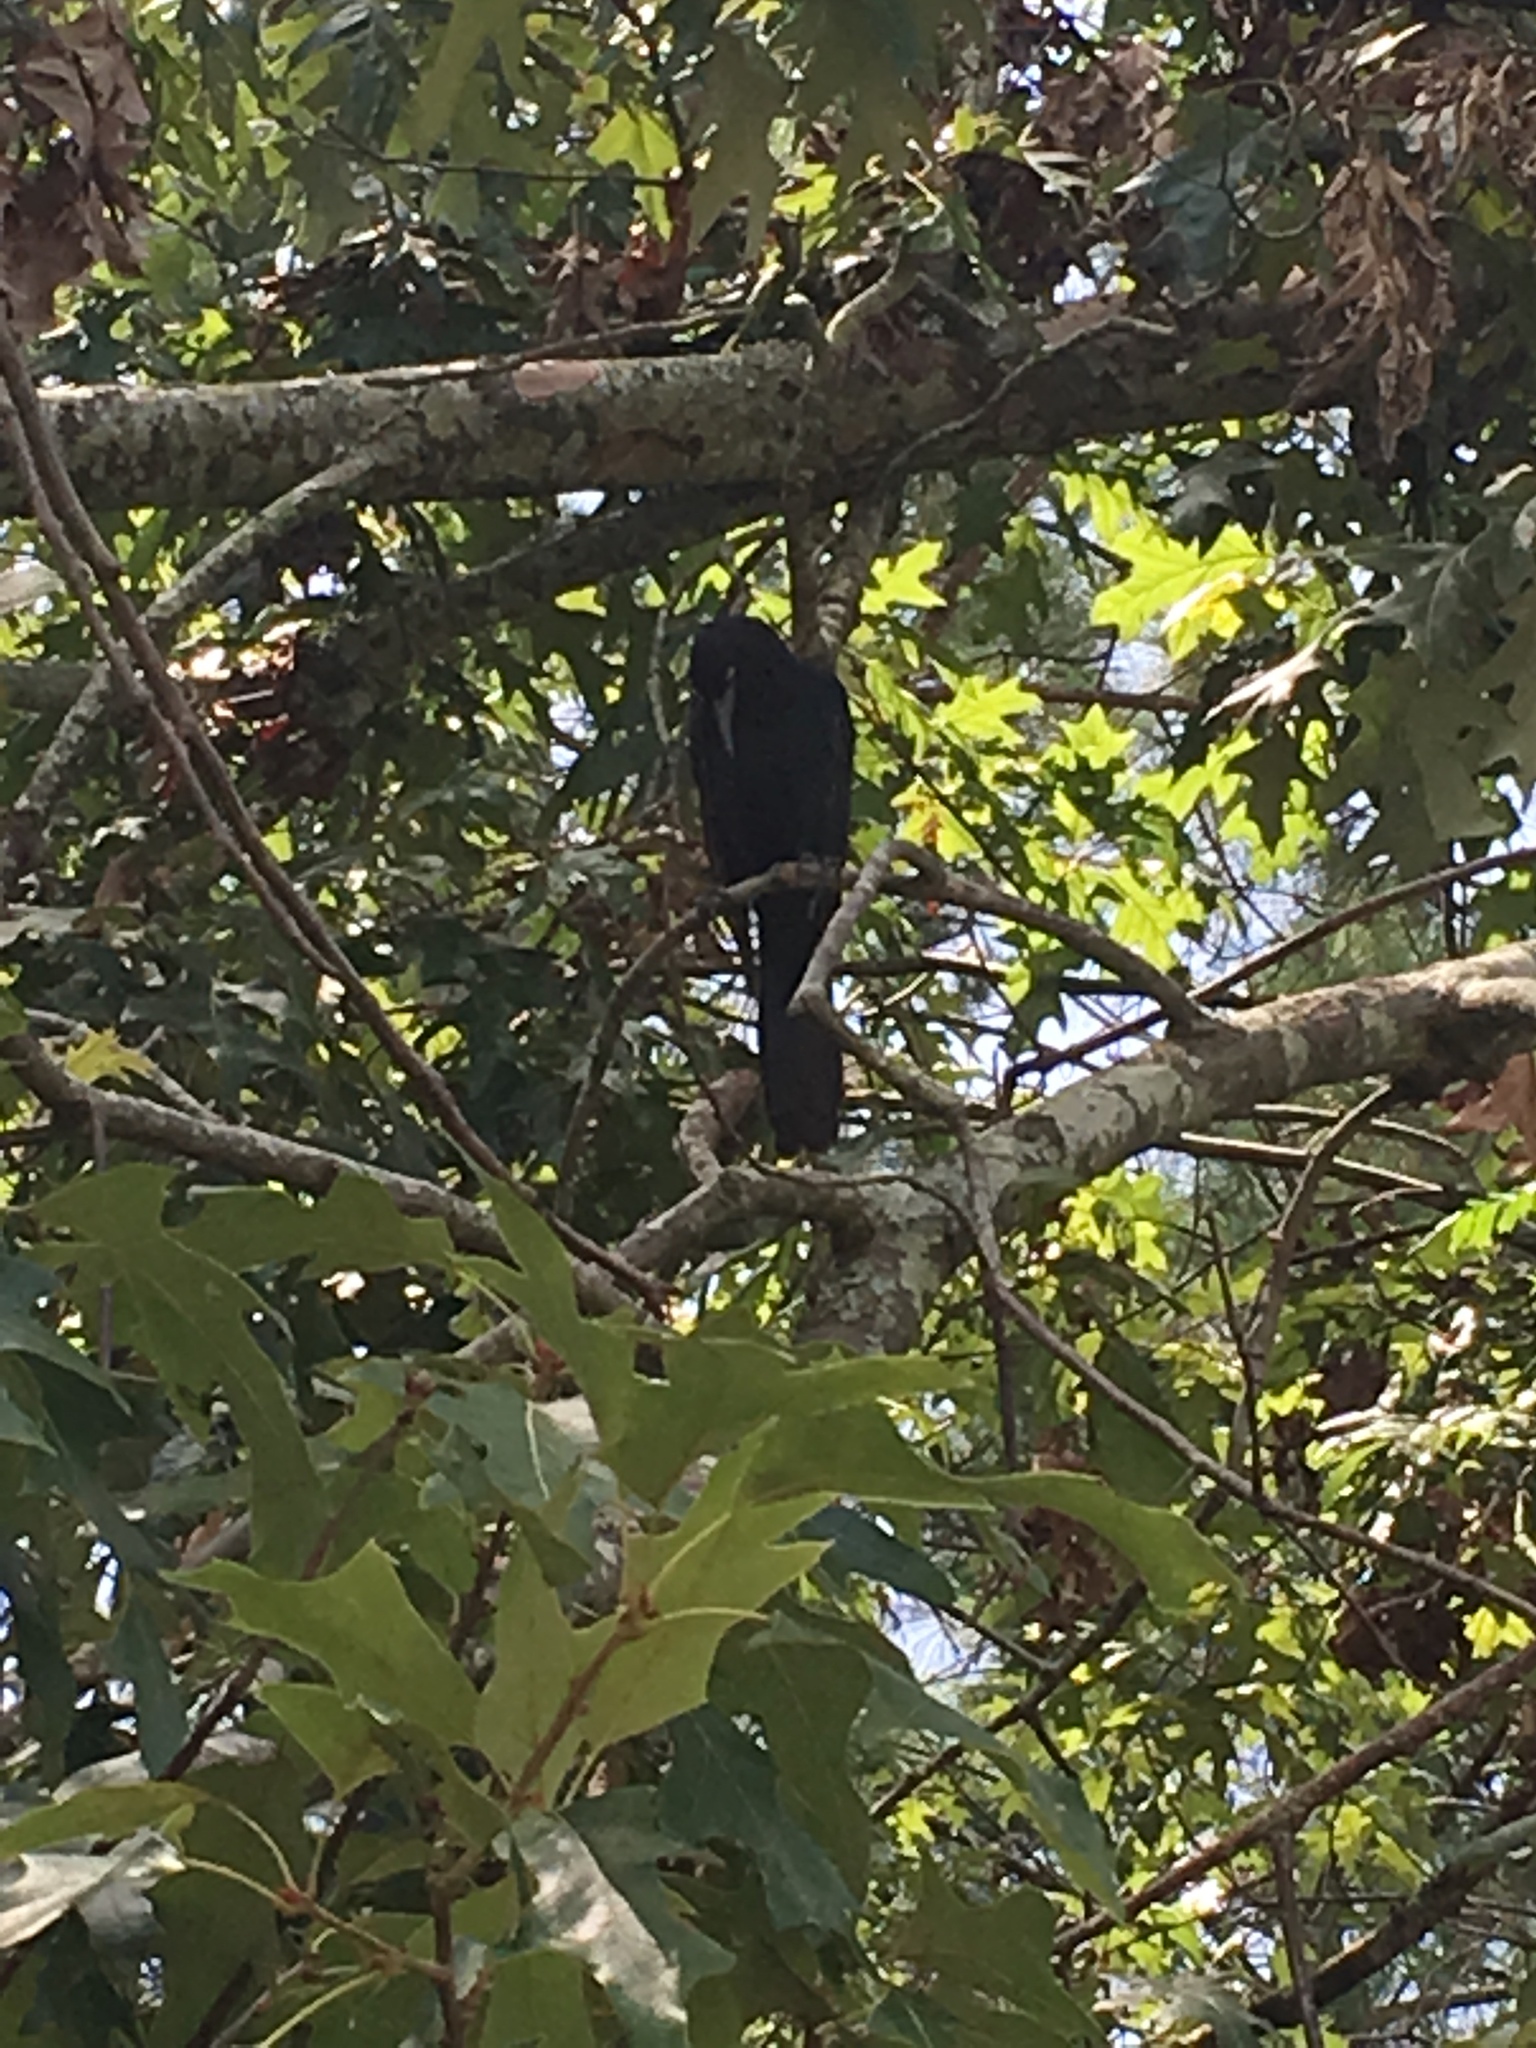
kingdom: Animalia
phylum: Chordata
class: Aves
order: Passeriformes
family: Icteridae
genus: Quiscalus
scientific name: Quiscalus major
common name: Boat-tailed grackle
